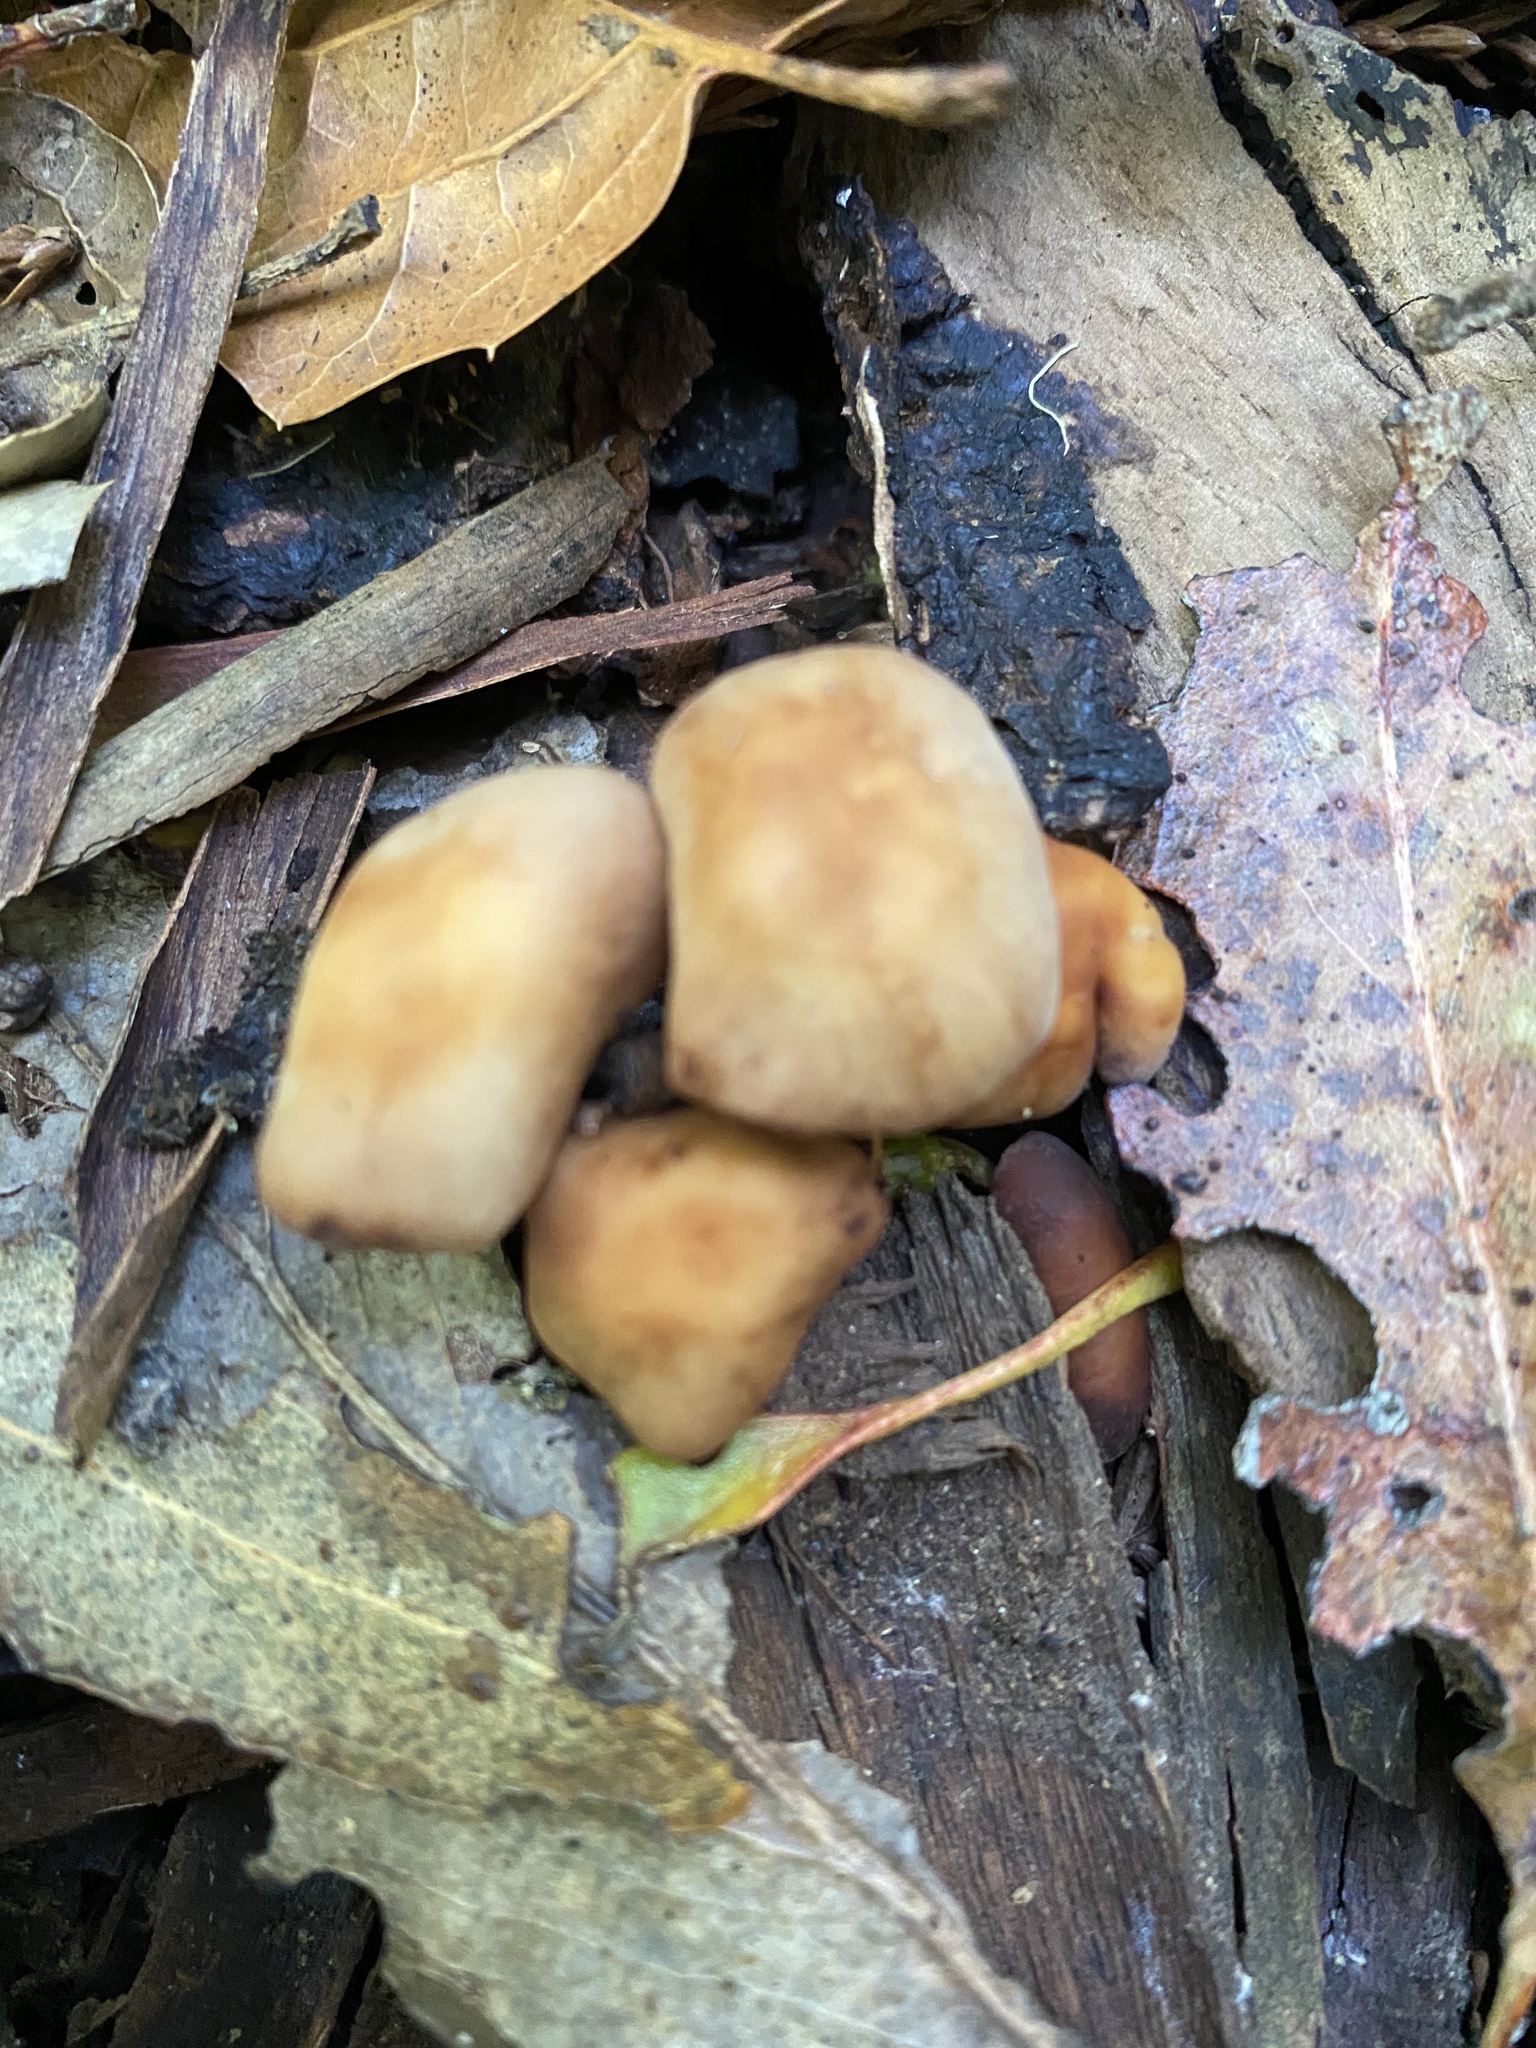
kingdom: Fungi
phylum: Basidiomycota
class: Agaricomycetes
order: Agaricales
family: Omphalotaceae
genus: Gymnopus
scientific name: Gymnopus brassicolens
